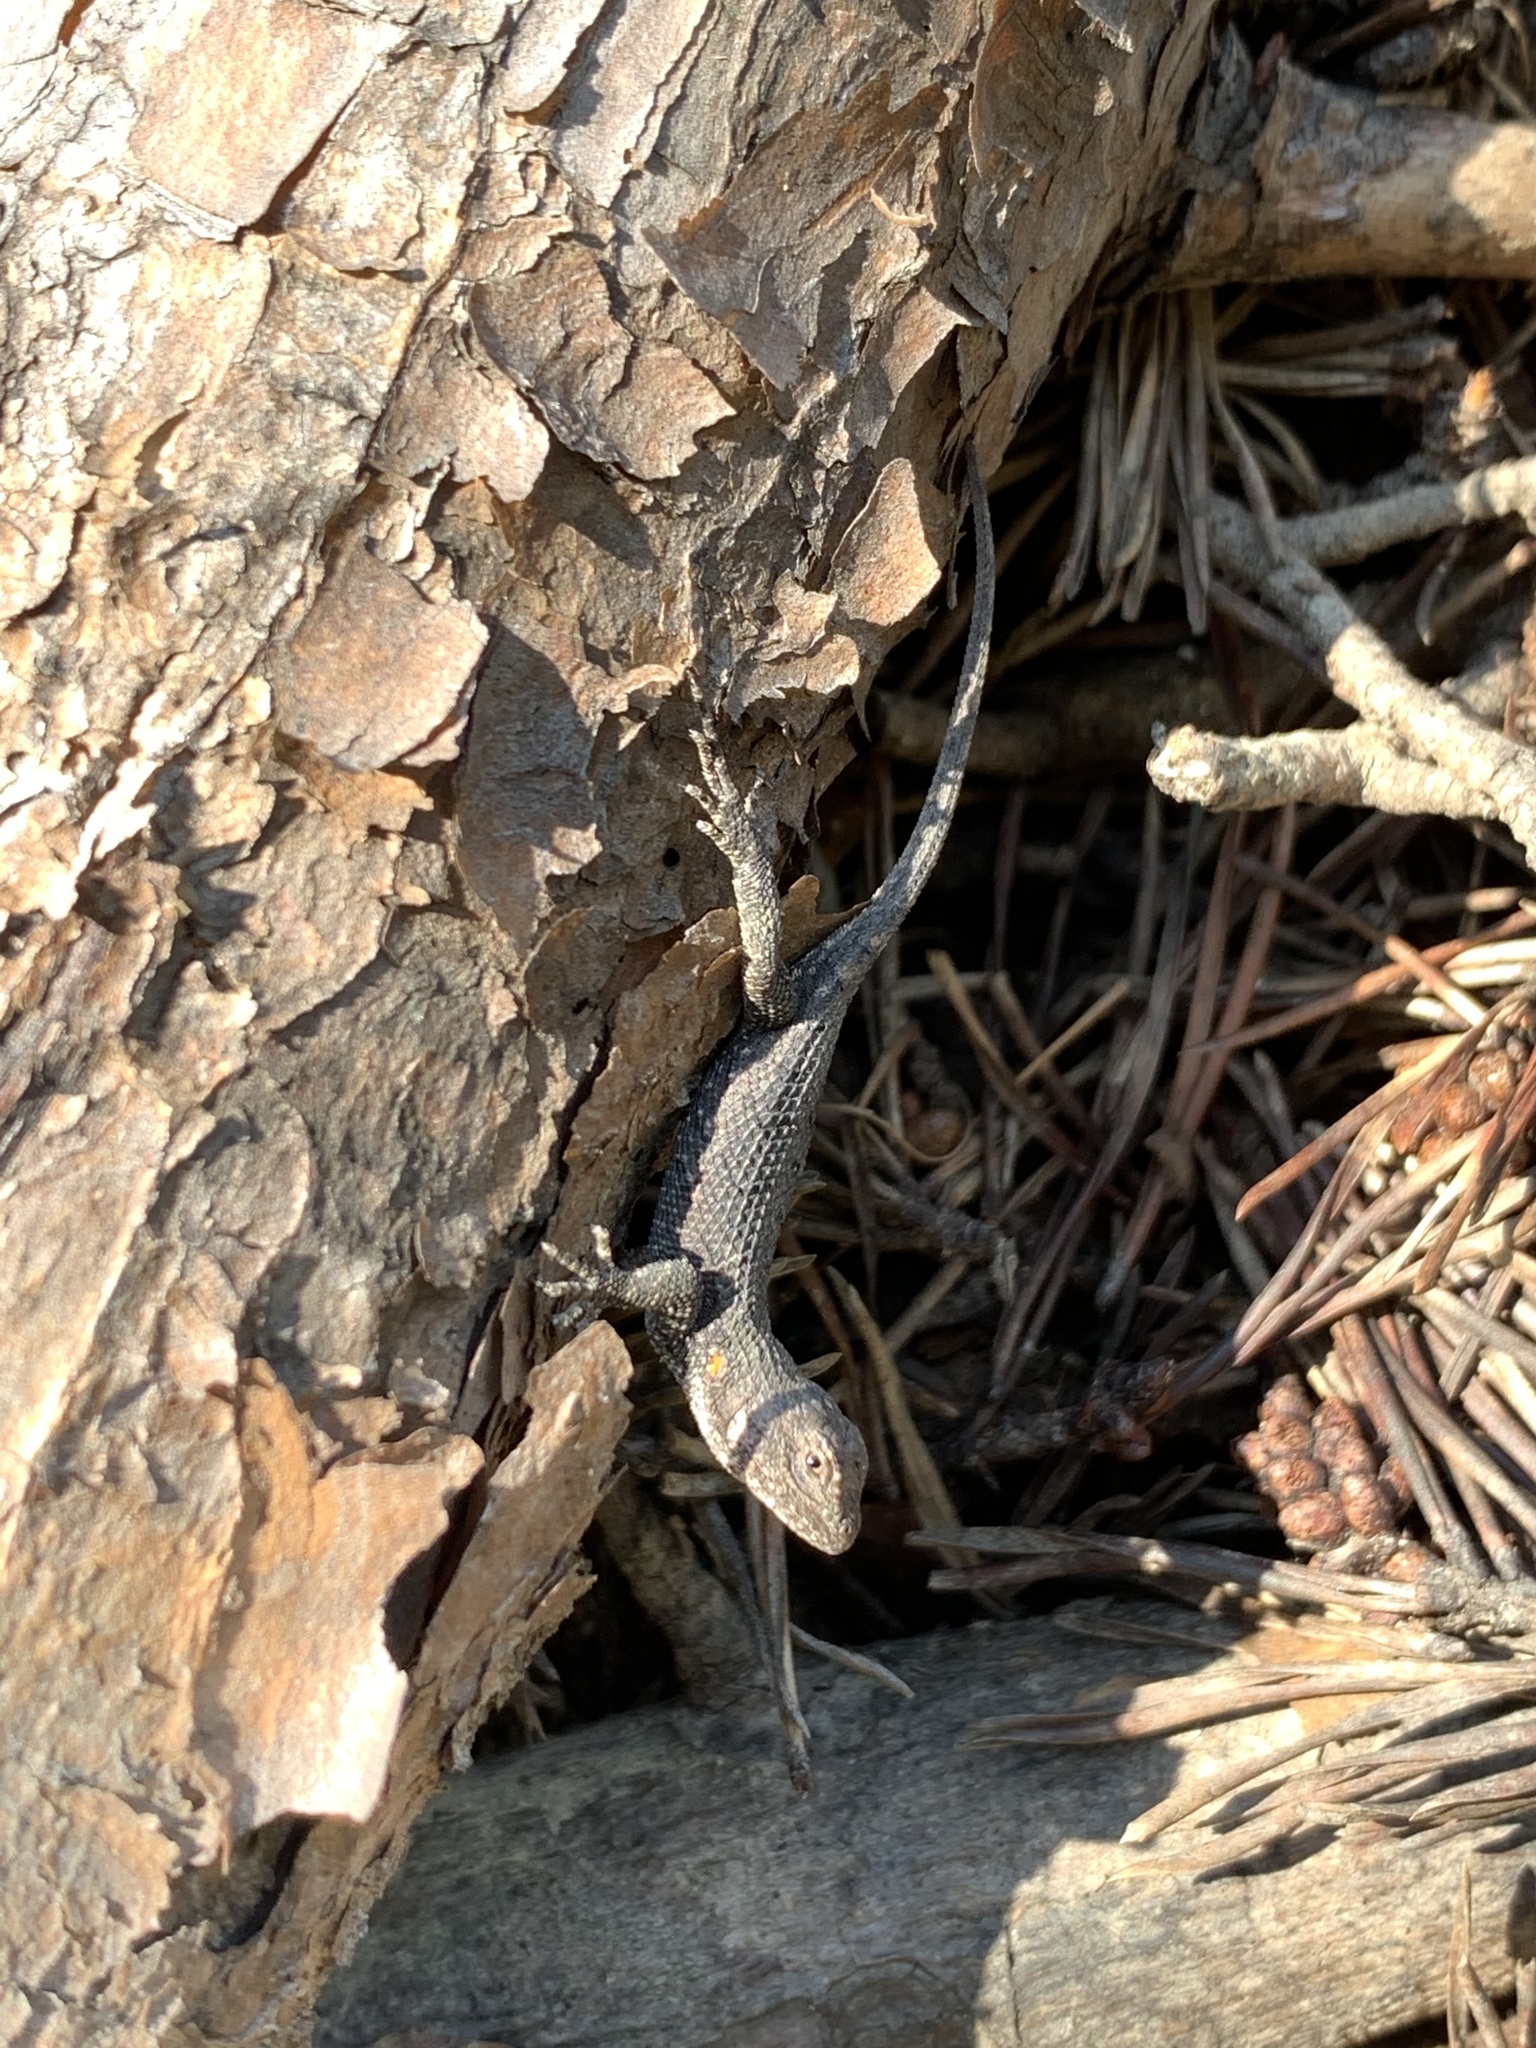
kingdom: Animalia
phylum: Chordata
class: Squamata
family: Phrynosomatidae
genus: Sceloporus
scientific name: Sceloporus undulatus
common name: Eastern fence lizard
